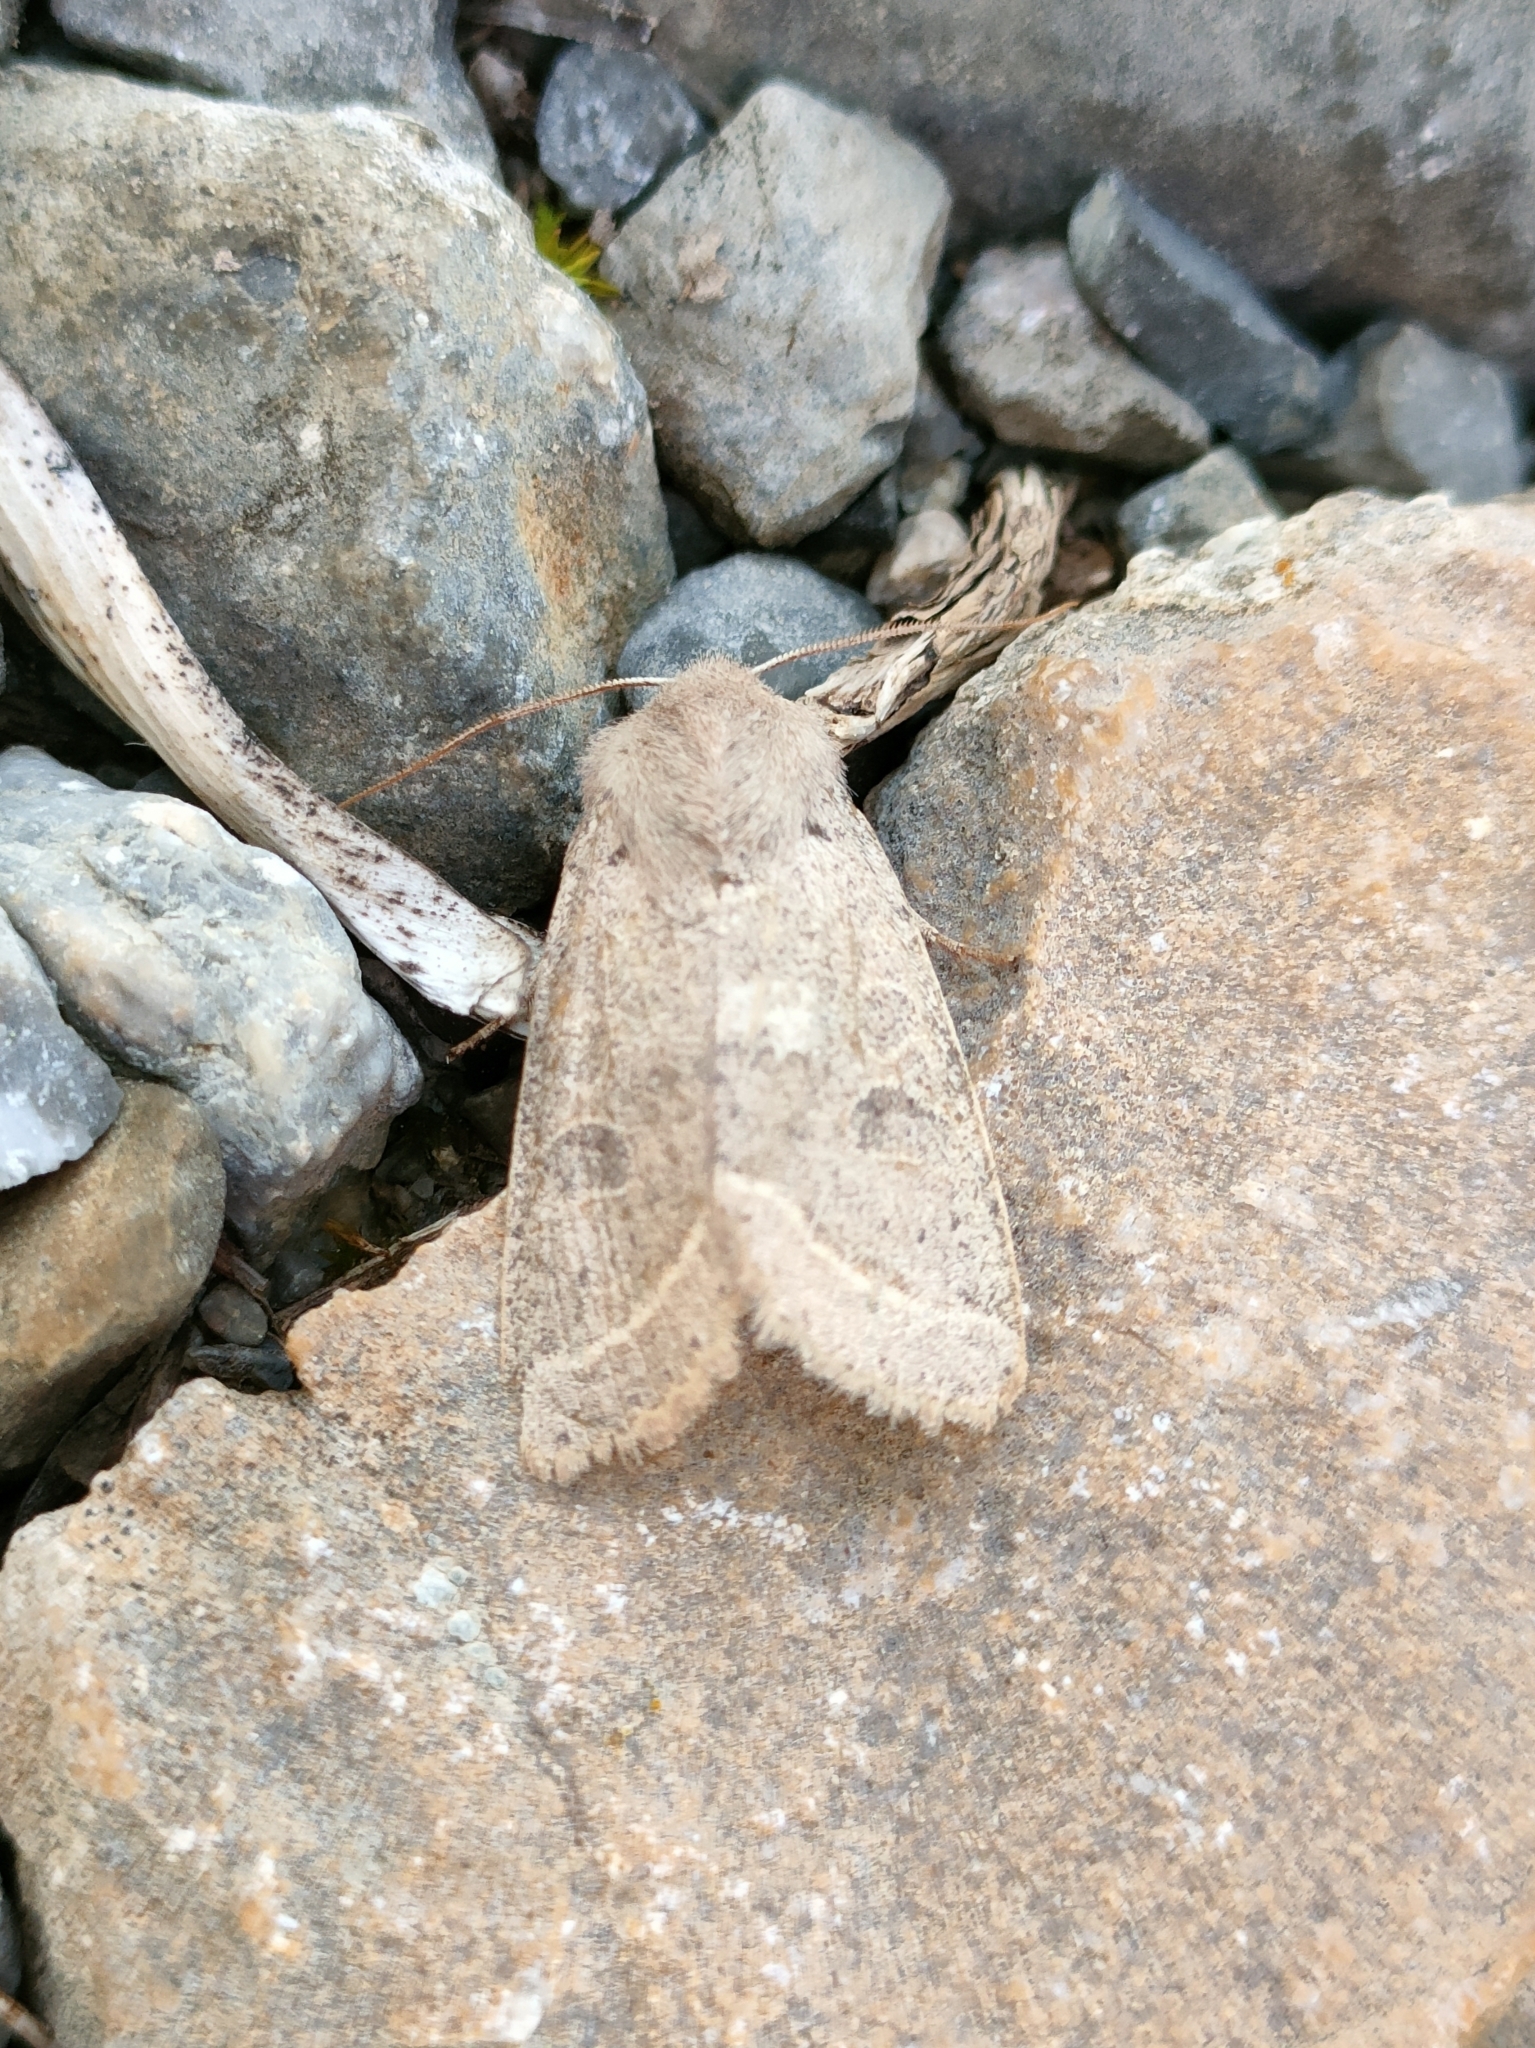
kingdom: Animalia
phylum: Arthropoda
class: Insecta
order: Lepidoptera
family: Noctuidae
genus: Orthosia
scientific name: Orthosia cerasi
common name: Common quaker
